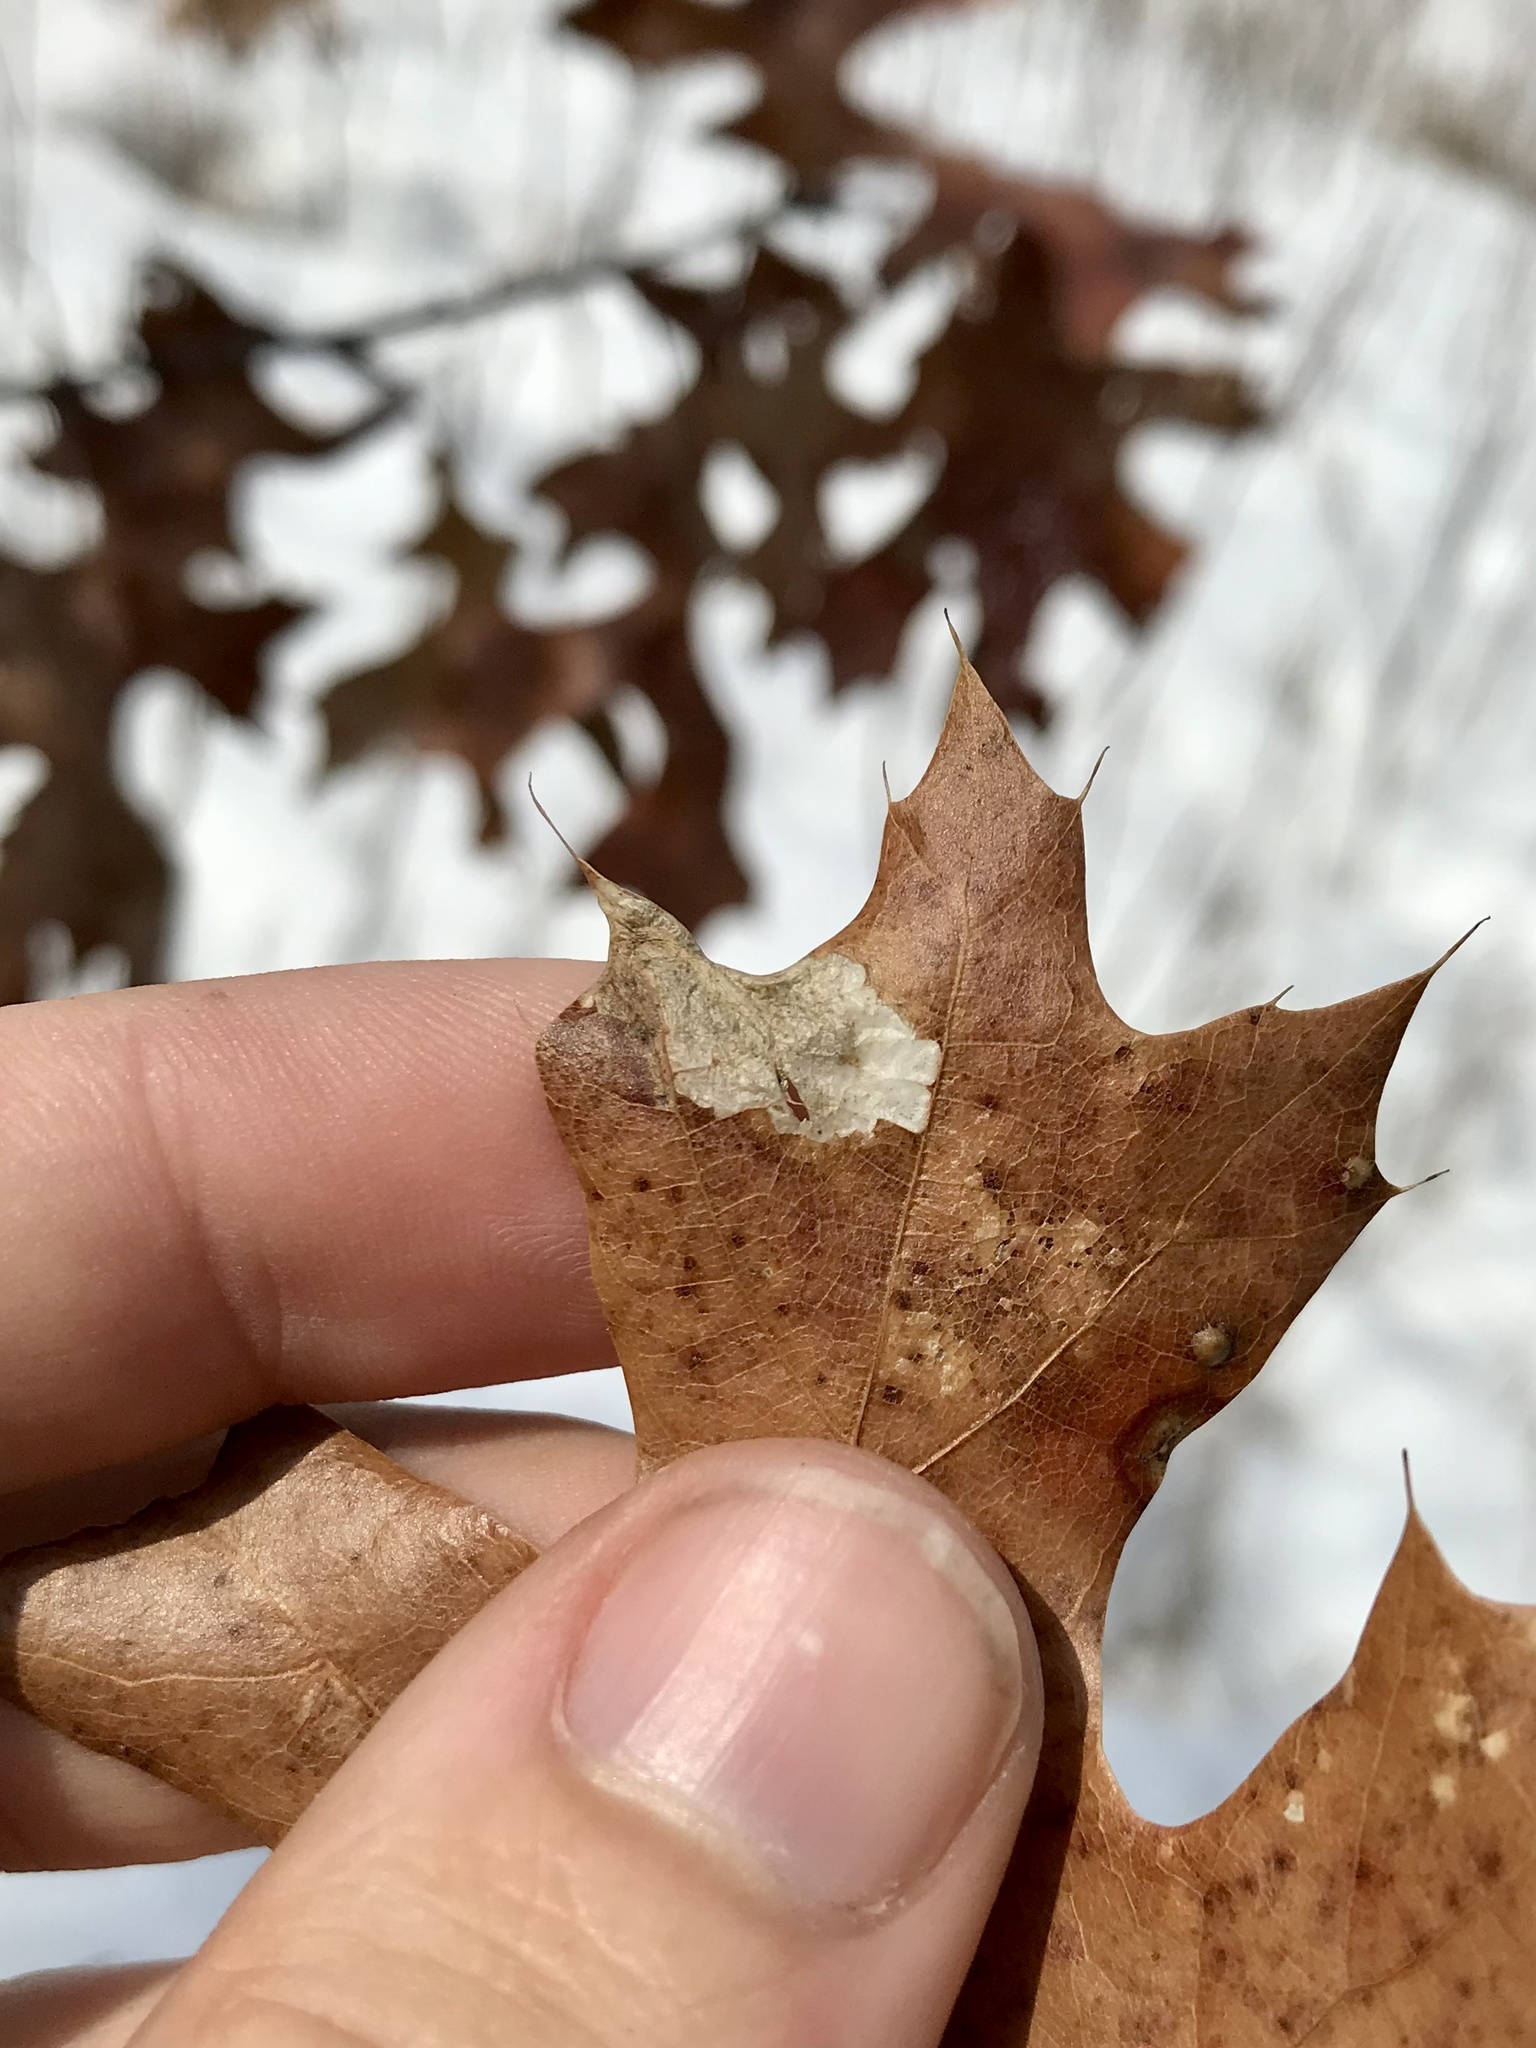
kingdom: Animalia
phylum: Arthropoda
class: Insecta
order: Lepidoptera
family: Cosmopterigidae
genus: Chrysopeleia
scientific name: Chrysopeleia purpuriella
